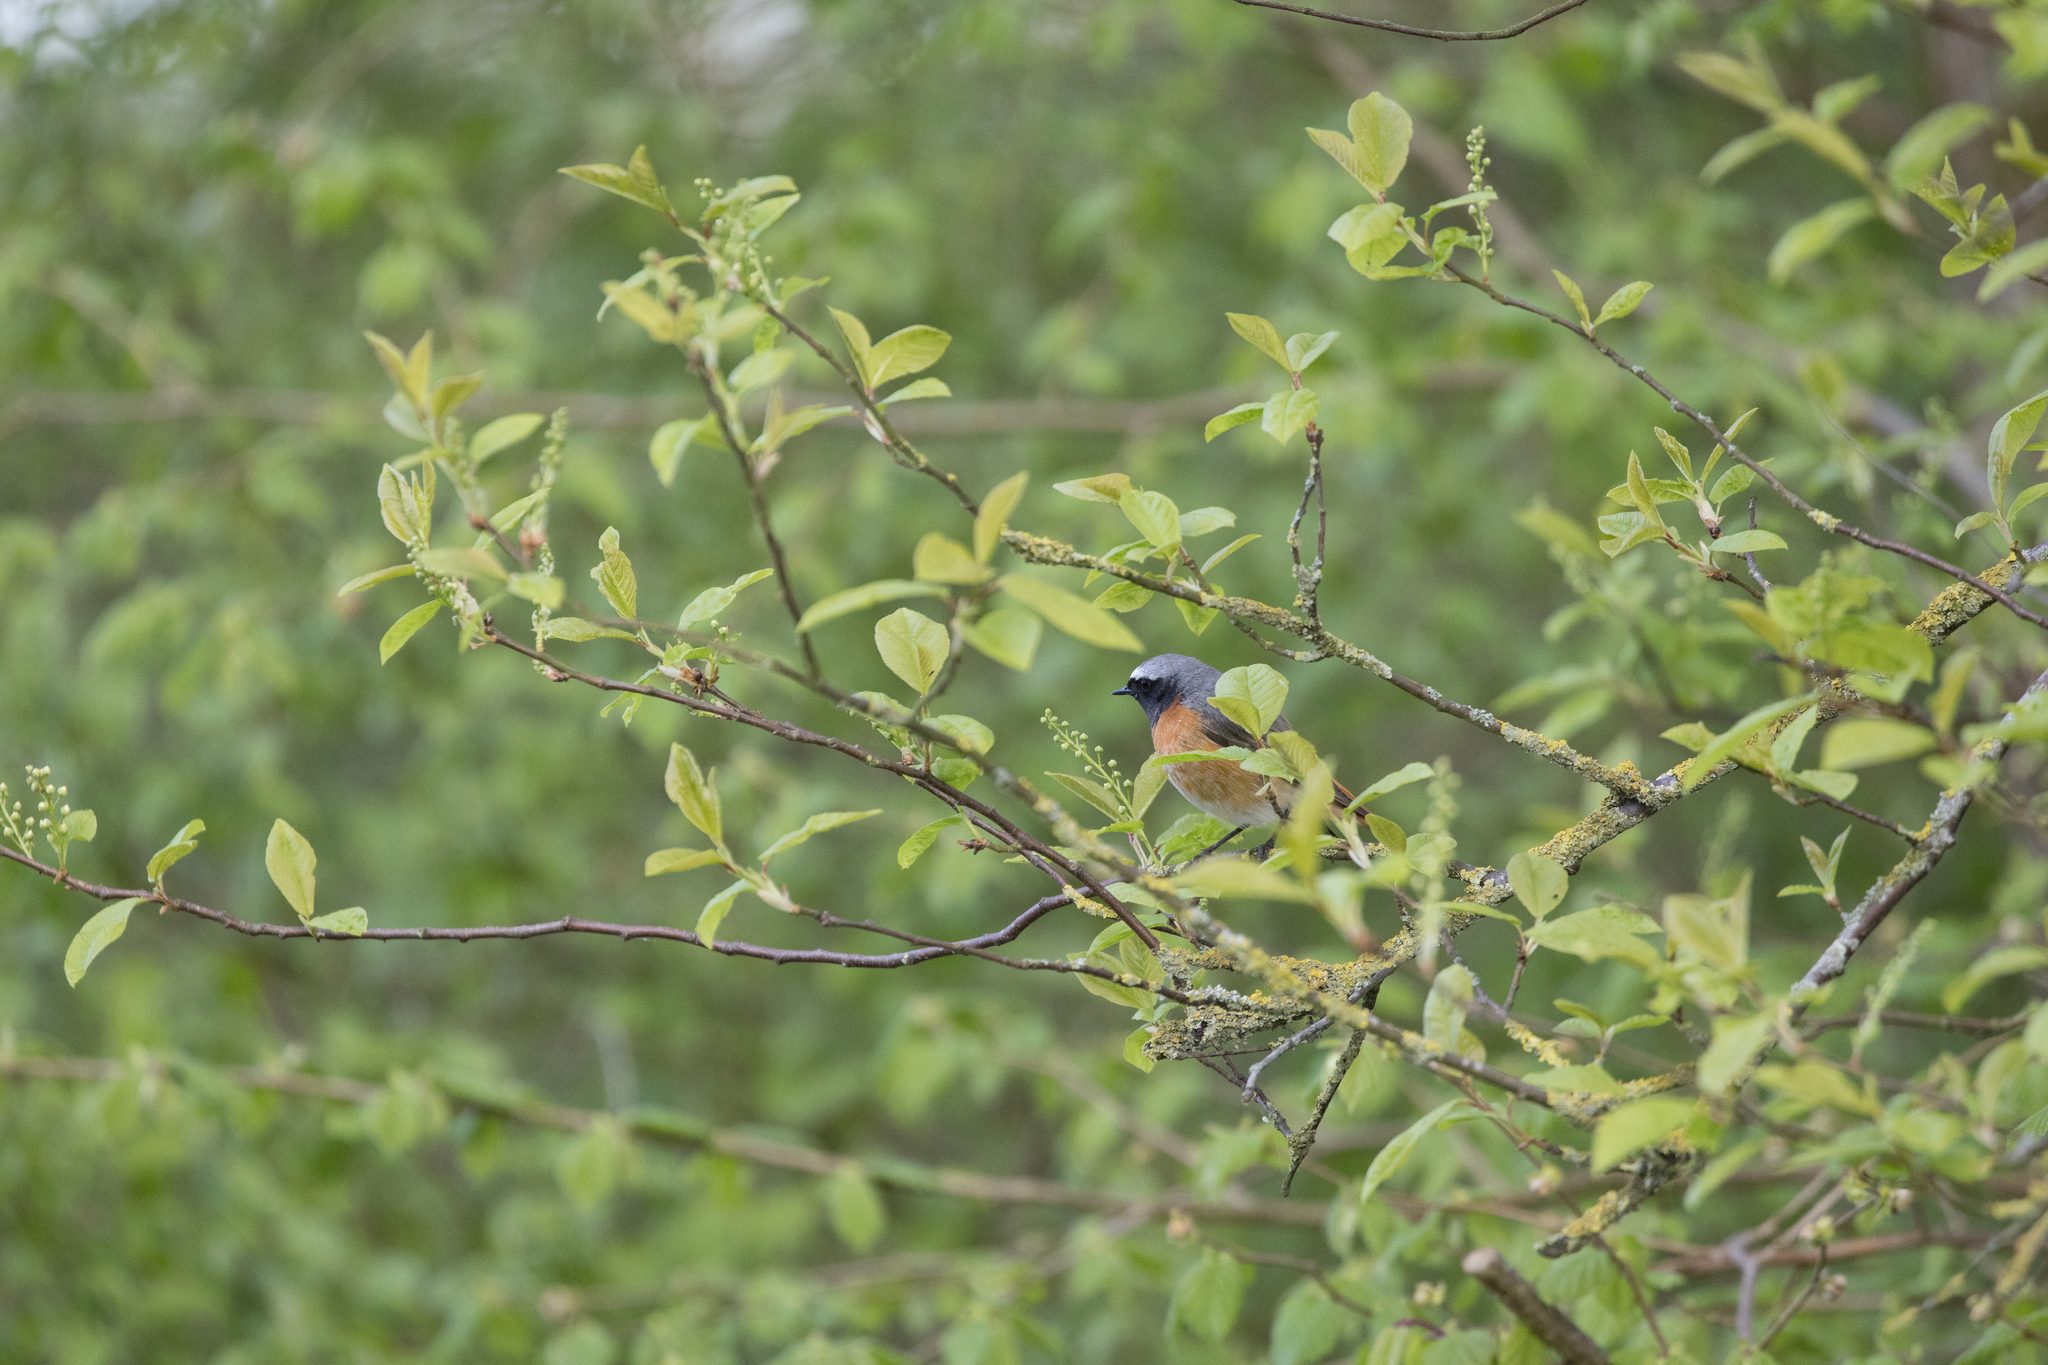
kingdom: Animalia
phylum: Chordata
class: Aves
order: Passeriformes
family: Muscicapidae
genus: Phoenicurus
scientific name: Phoenicurus phoenicurus
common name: Common redstart
